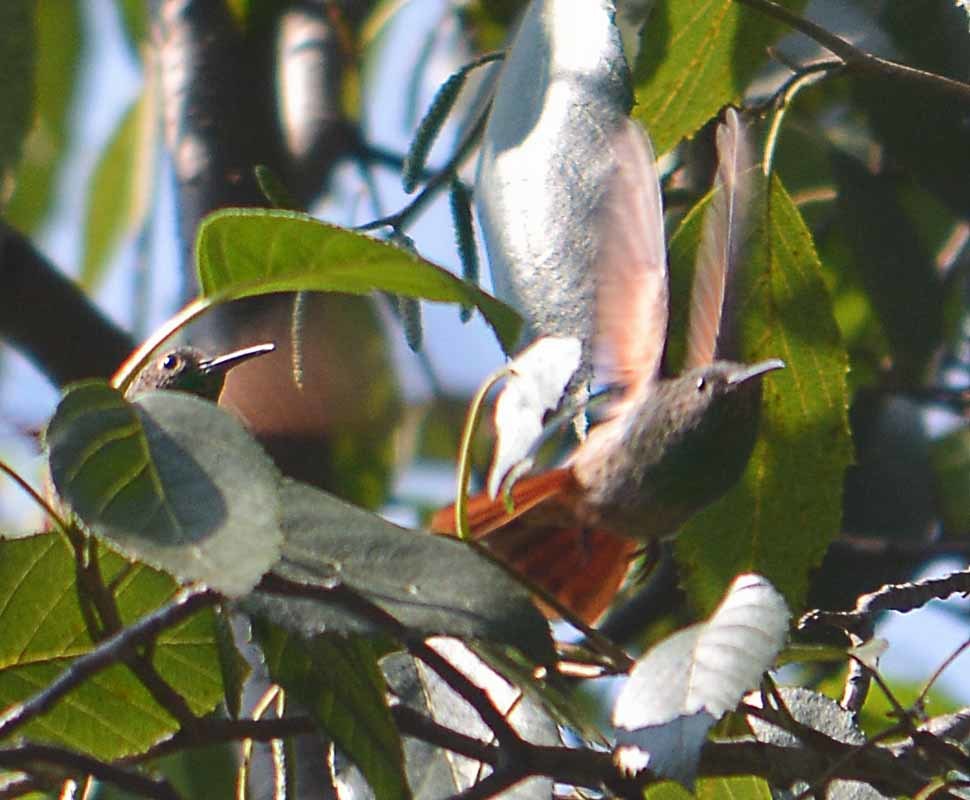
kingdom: Animalia
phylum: Chordata
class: Aves
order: Apodiformes
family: Trochilidae
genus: Saucerottia
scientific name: Saucerottia beryllina
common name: Berylline hummingbird
